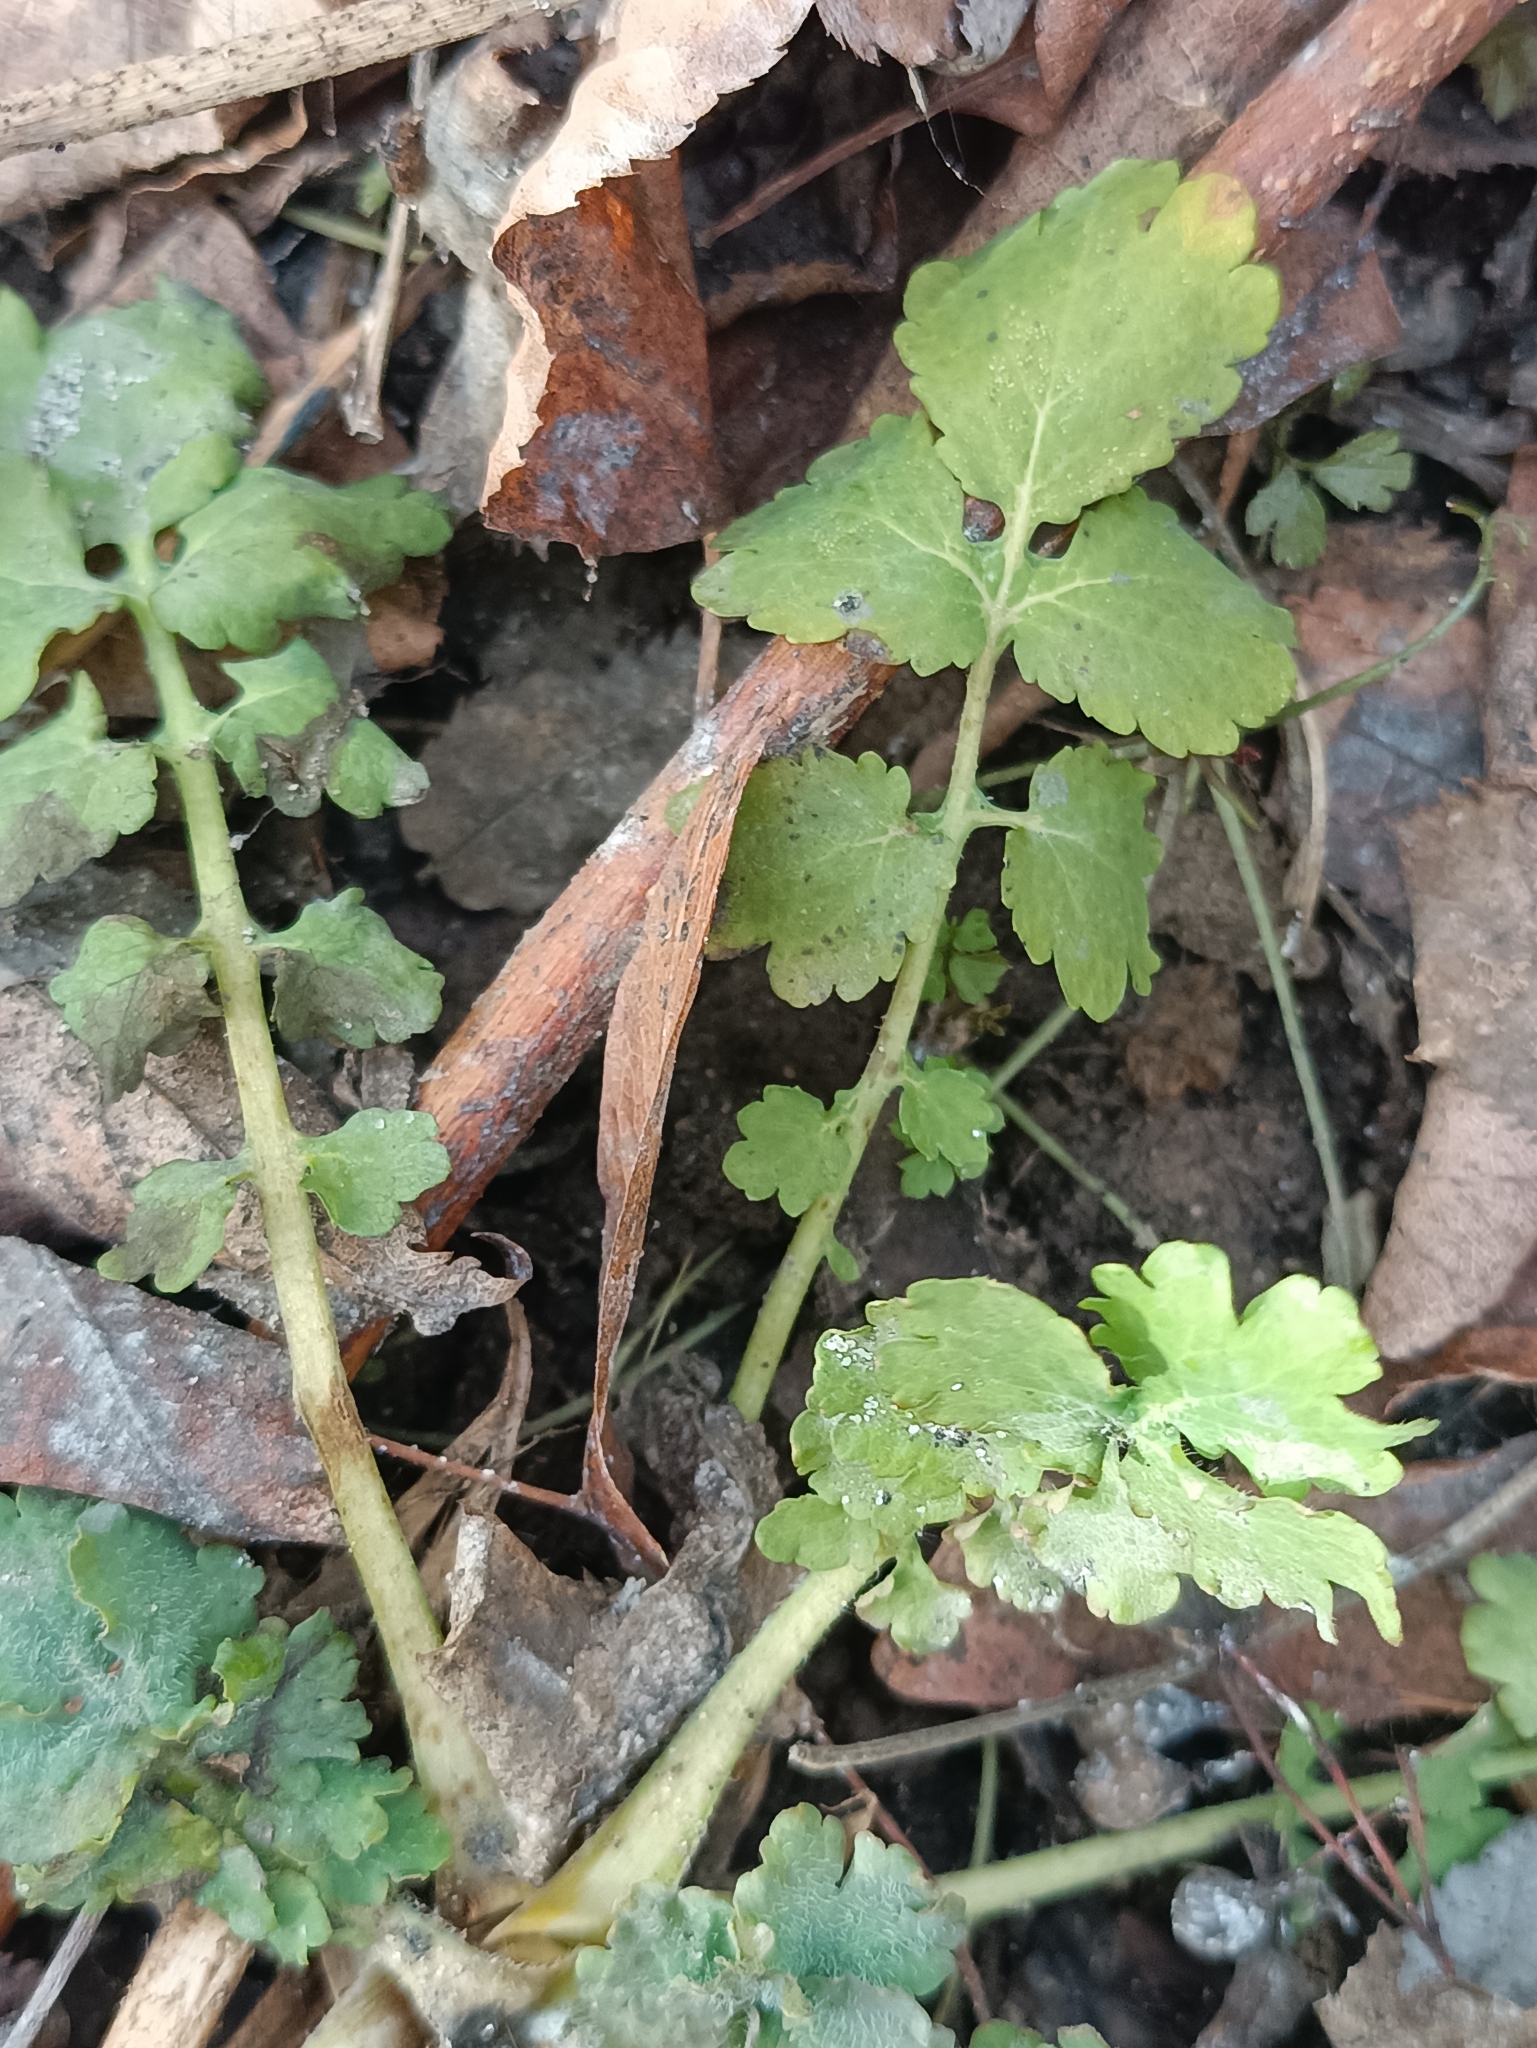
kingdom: Plantae
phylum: Tracheophyta
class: Magnoliopsida
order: Ranunculales
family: Papaveraceae
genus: Chelidonium
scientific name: Chelidonium majus
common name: Greater celandine
